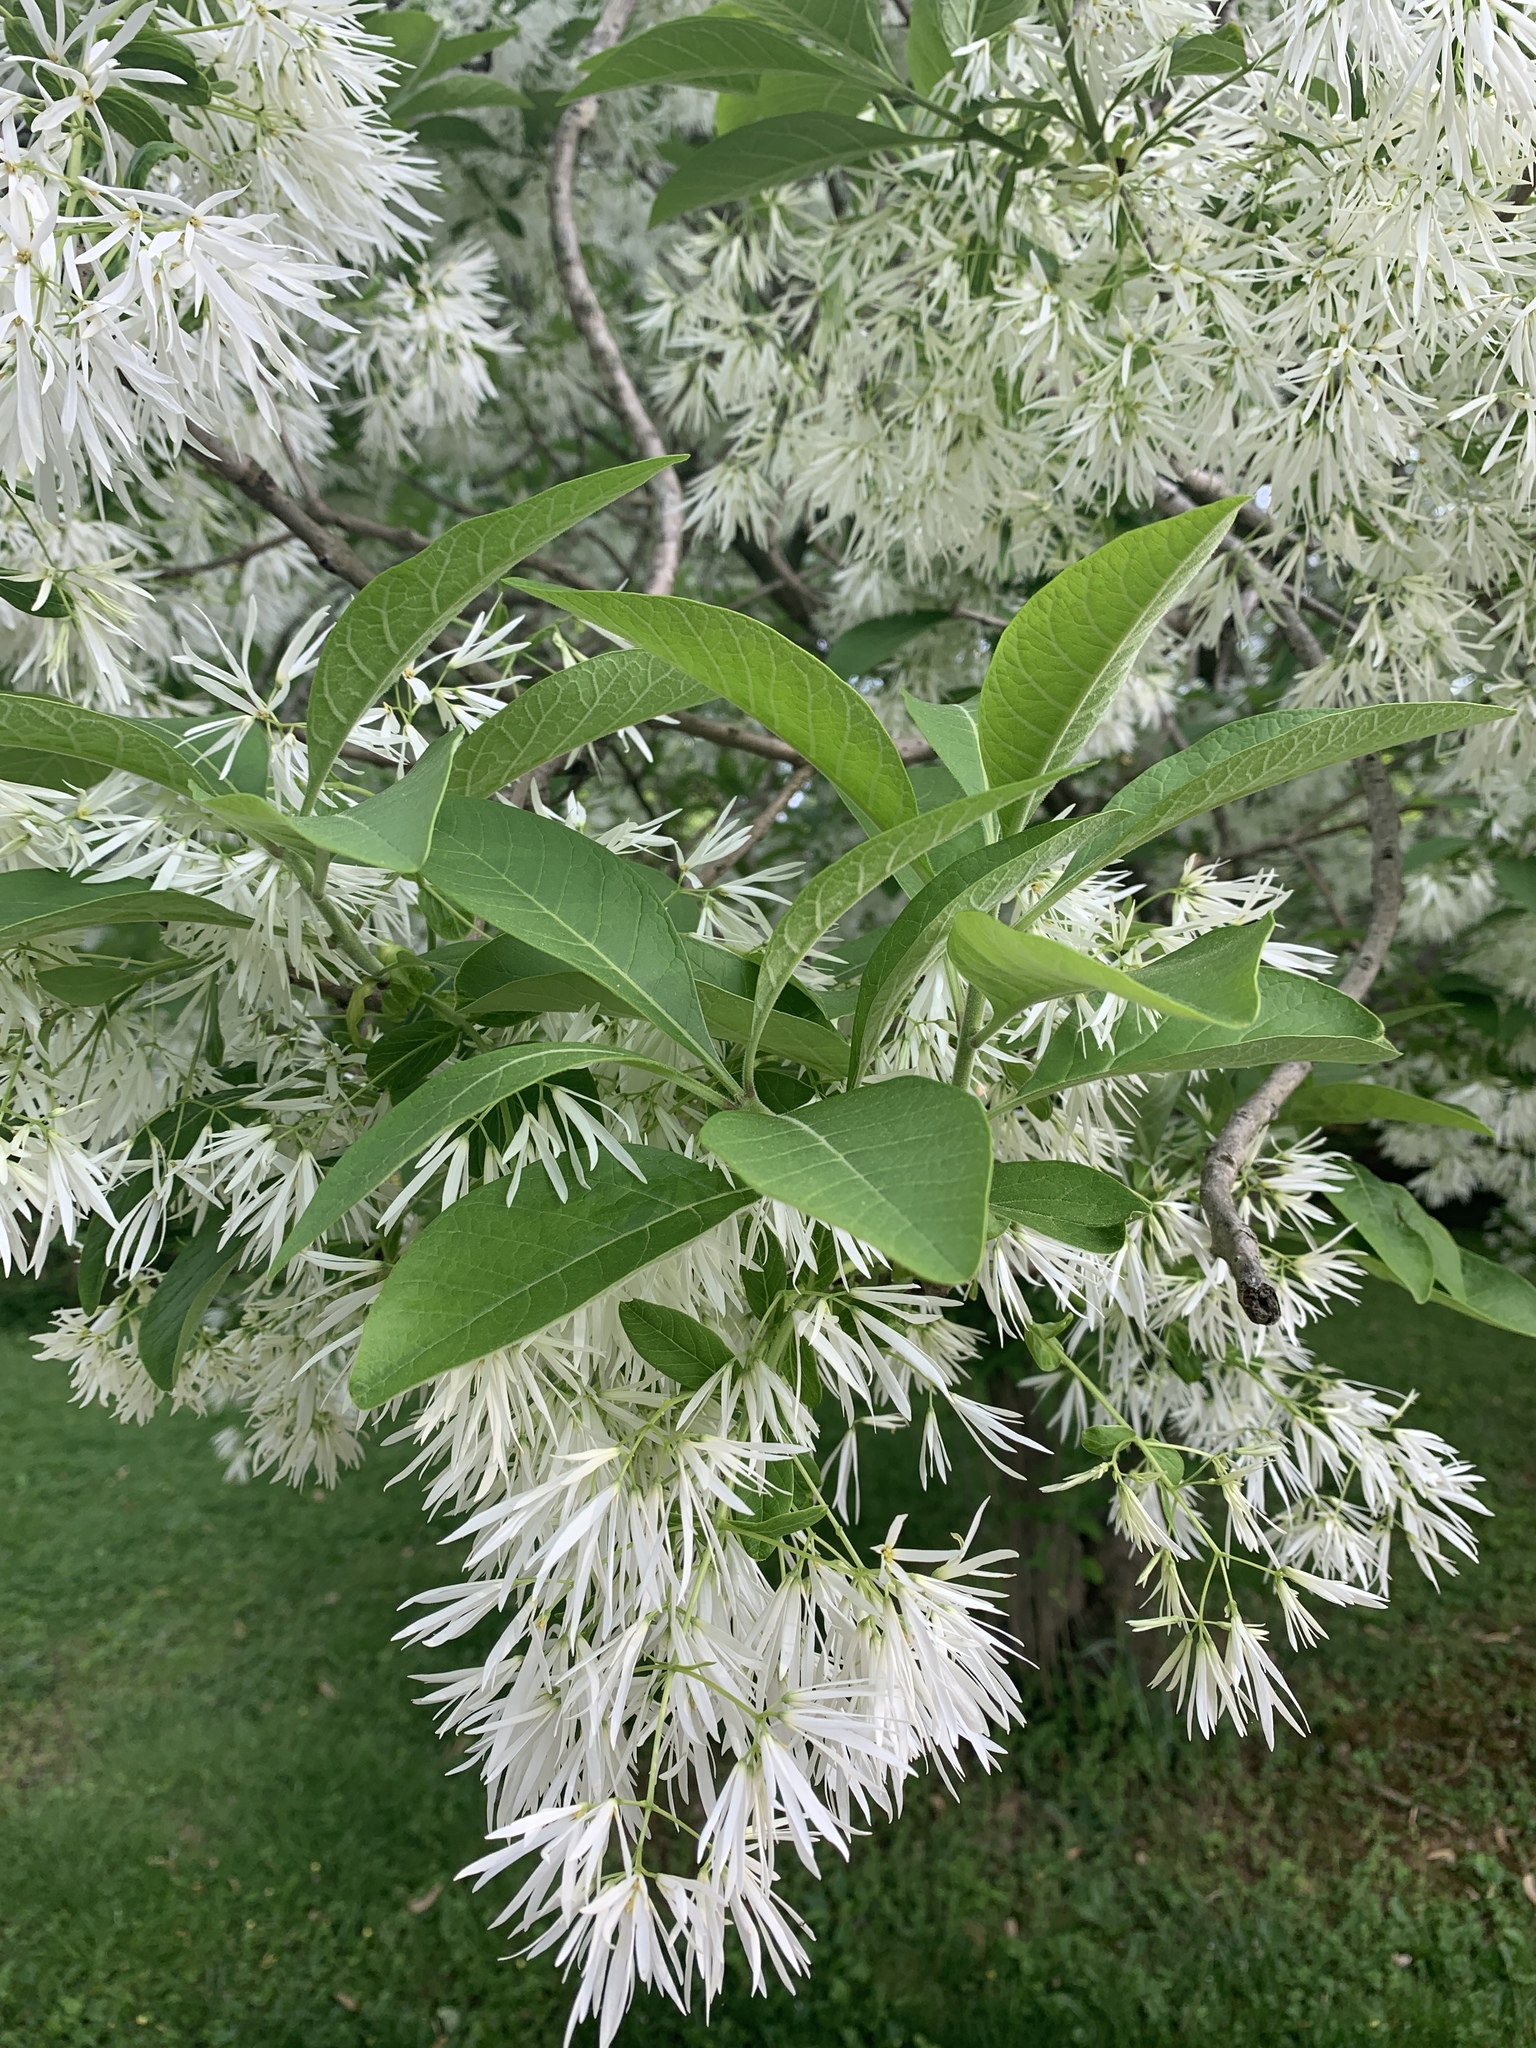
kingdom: Plantae
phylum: Tracheophyta
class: Magnoliopsida
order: Lamiales
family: Oleaceae
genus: Chionanthus
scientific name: Chionanthus virginicus
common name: American fringetree
